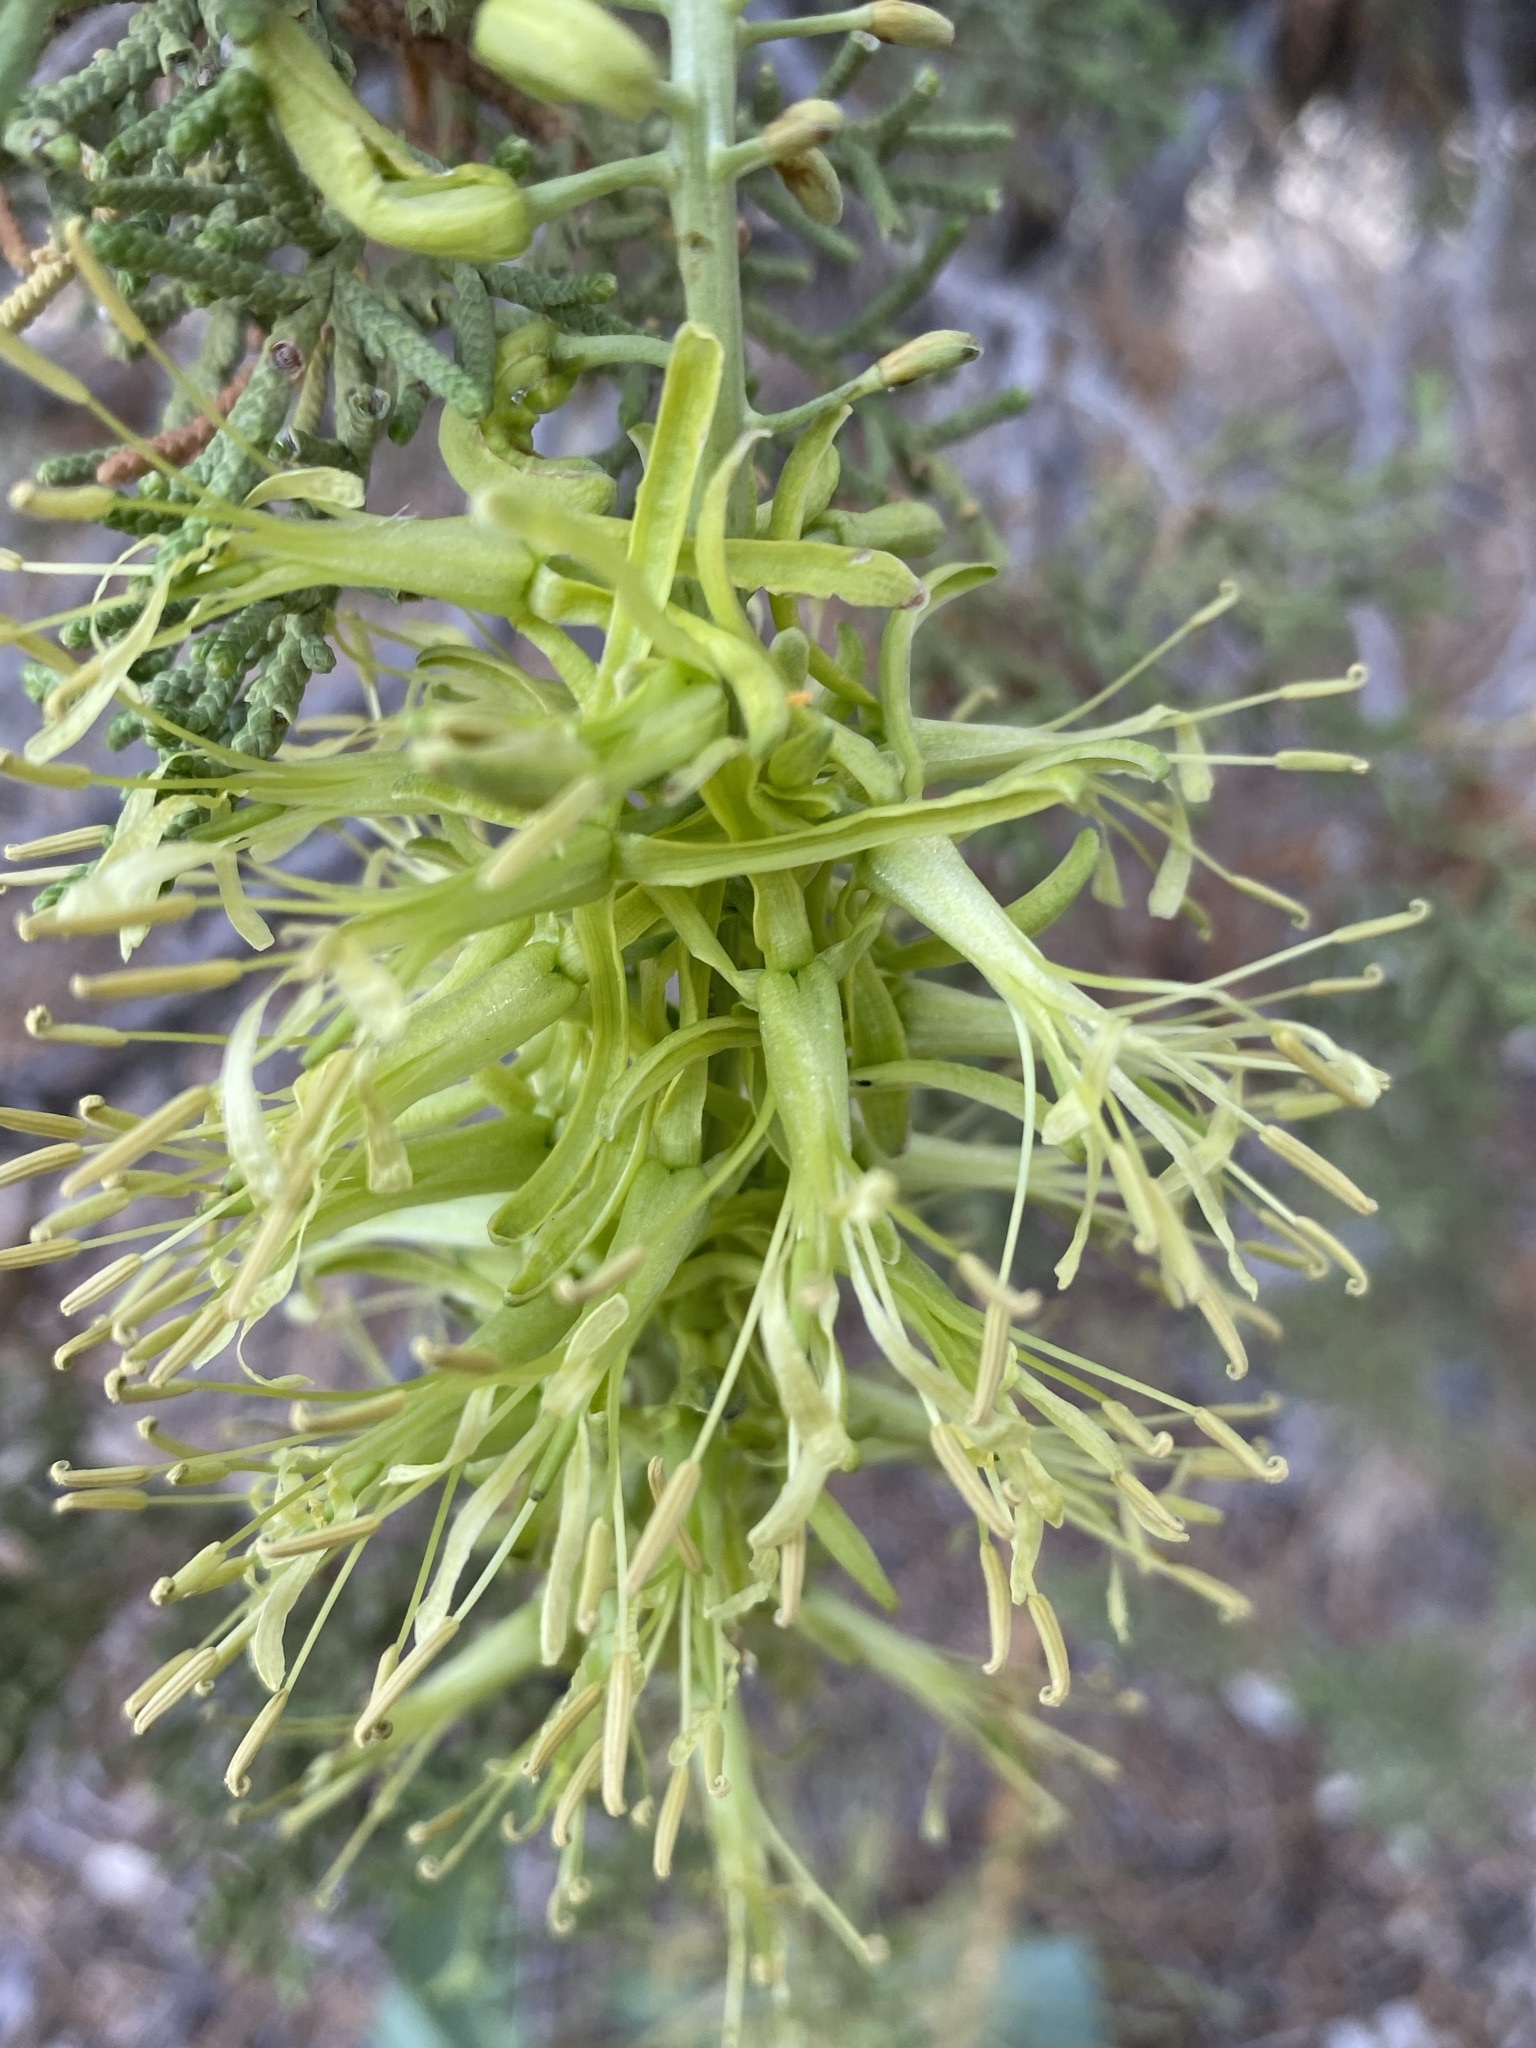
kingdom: Plantae
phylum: Tracheophyta
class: Magnoliopsida
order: Brassicales
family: Brassicaceae
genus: Stanleya
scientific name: Stanleya viridiflora
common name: Desert plume
